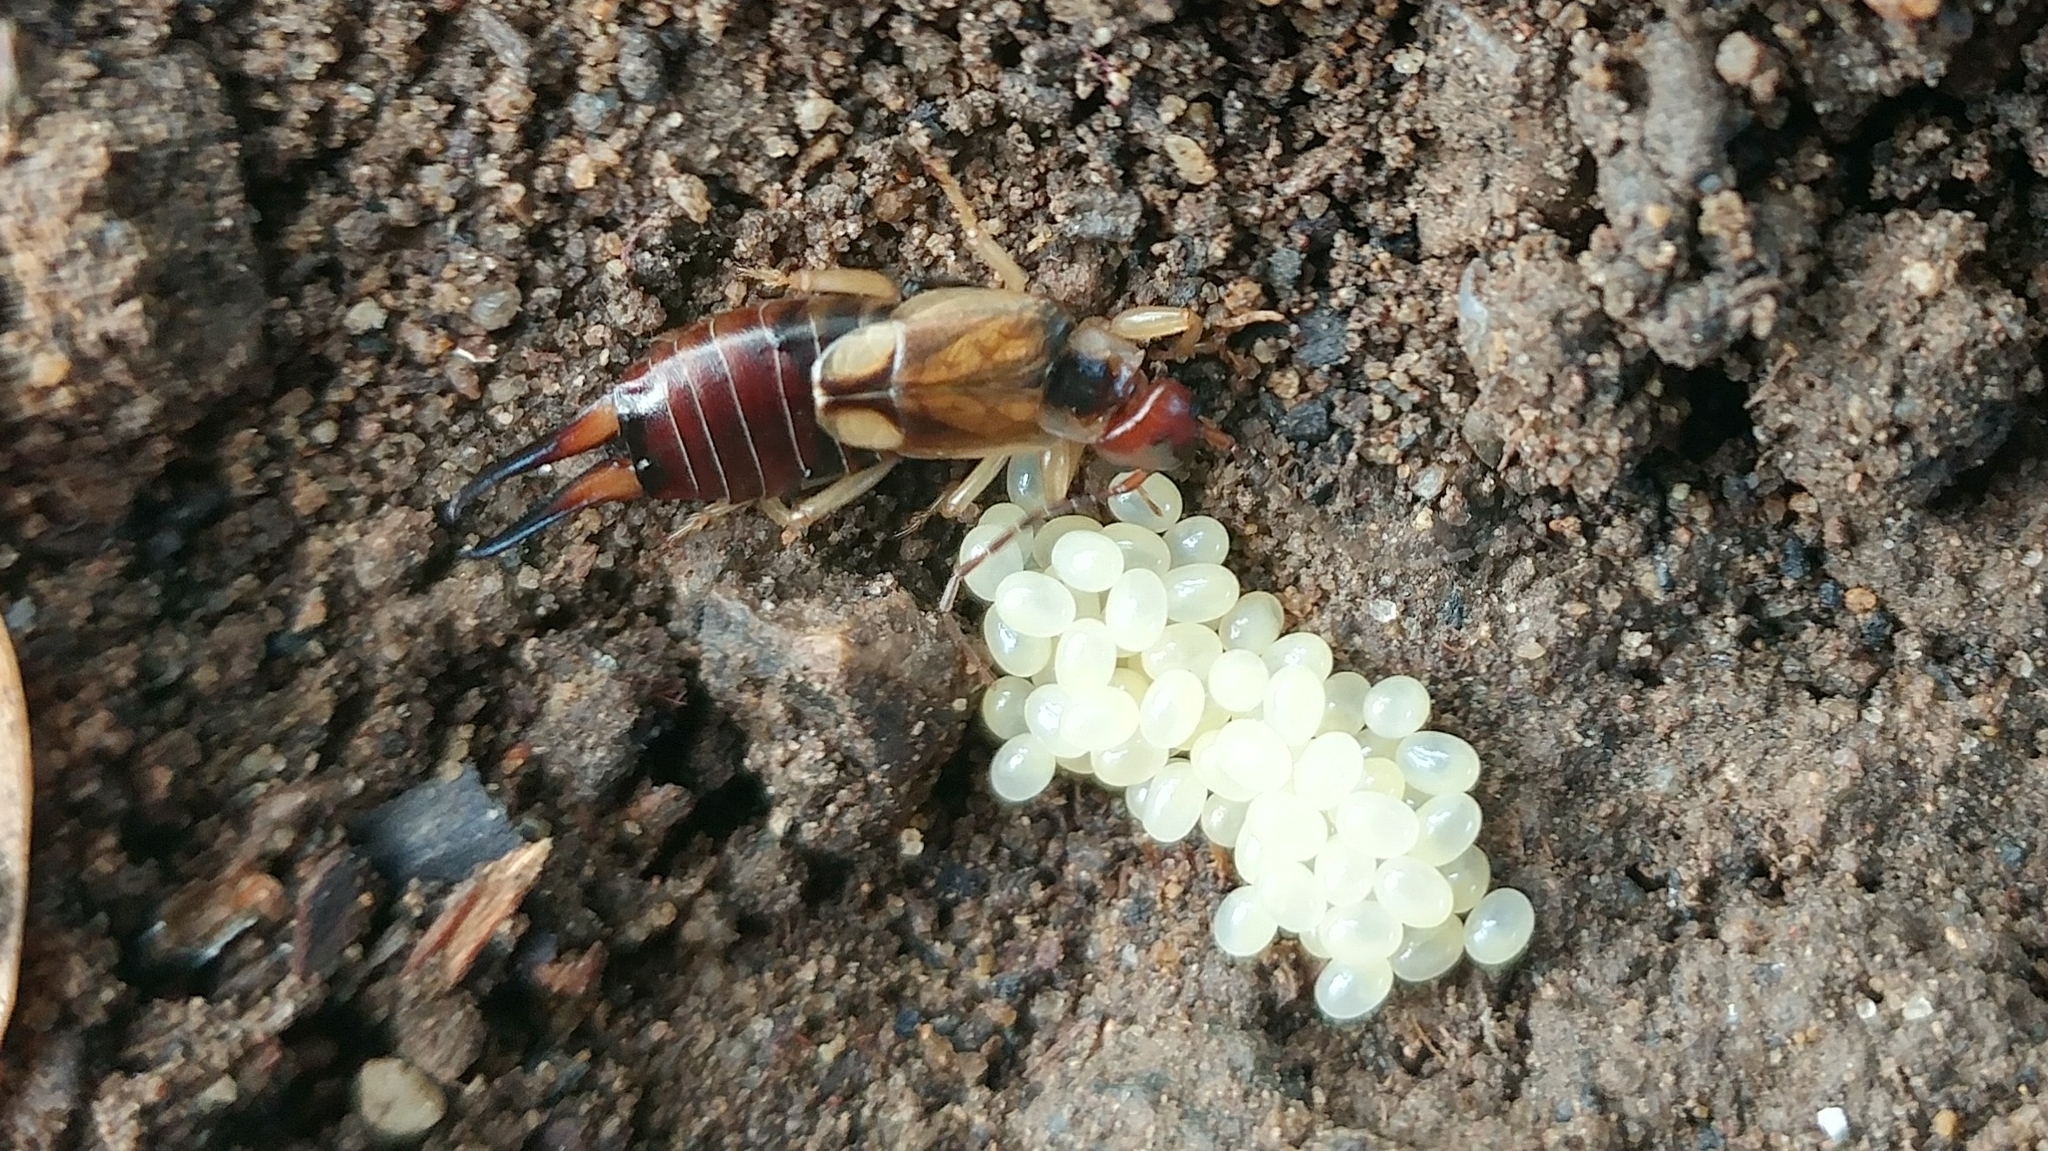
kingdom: Animalia
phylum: Arthropoda
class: Insecta
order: Dermaptera
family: Forficulidae
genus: Forficula
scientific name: Forficula
